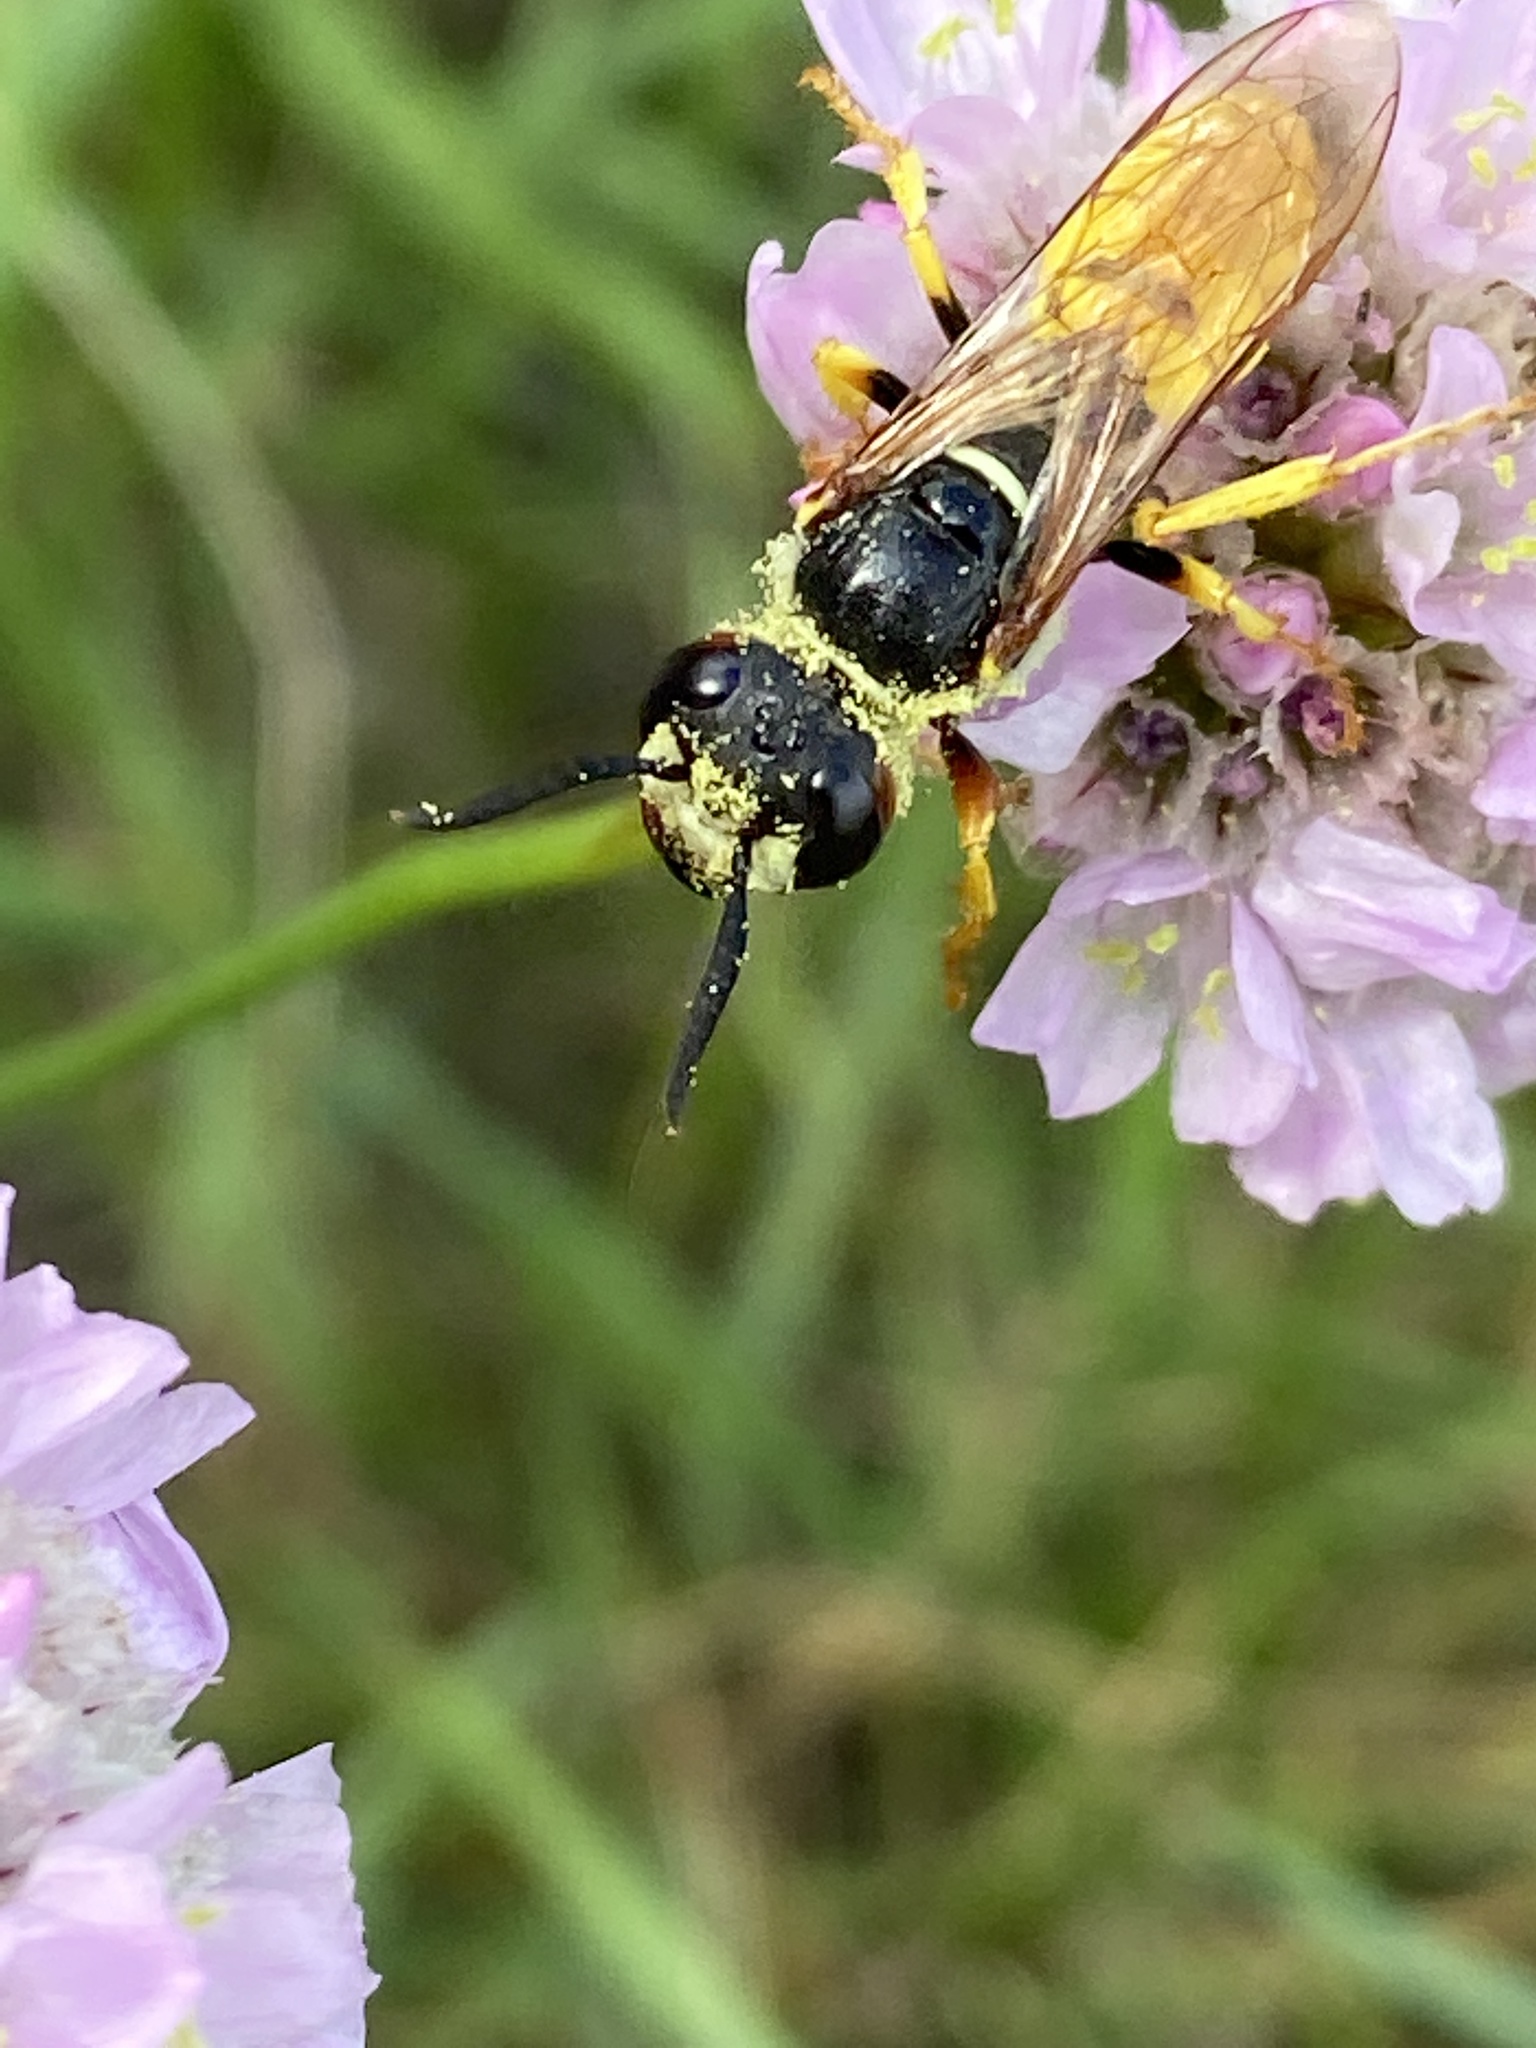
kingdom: Animalia
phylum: Arthropoda
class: Insecta
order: Hymenoptera
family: Crabronidae
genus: Philanthus
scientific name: Philanthus triangulum
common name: Bee wolf
